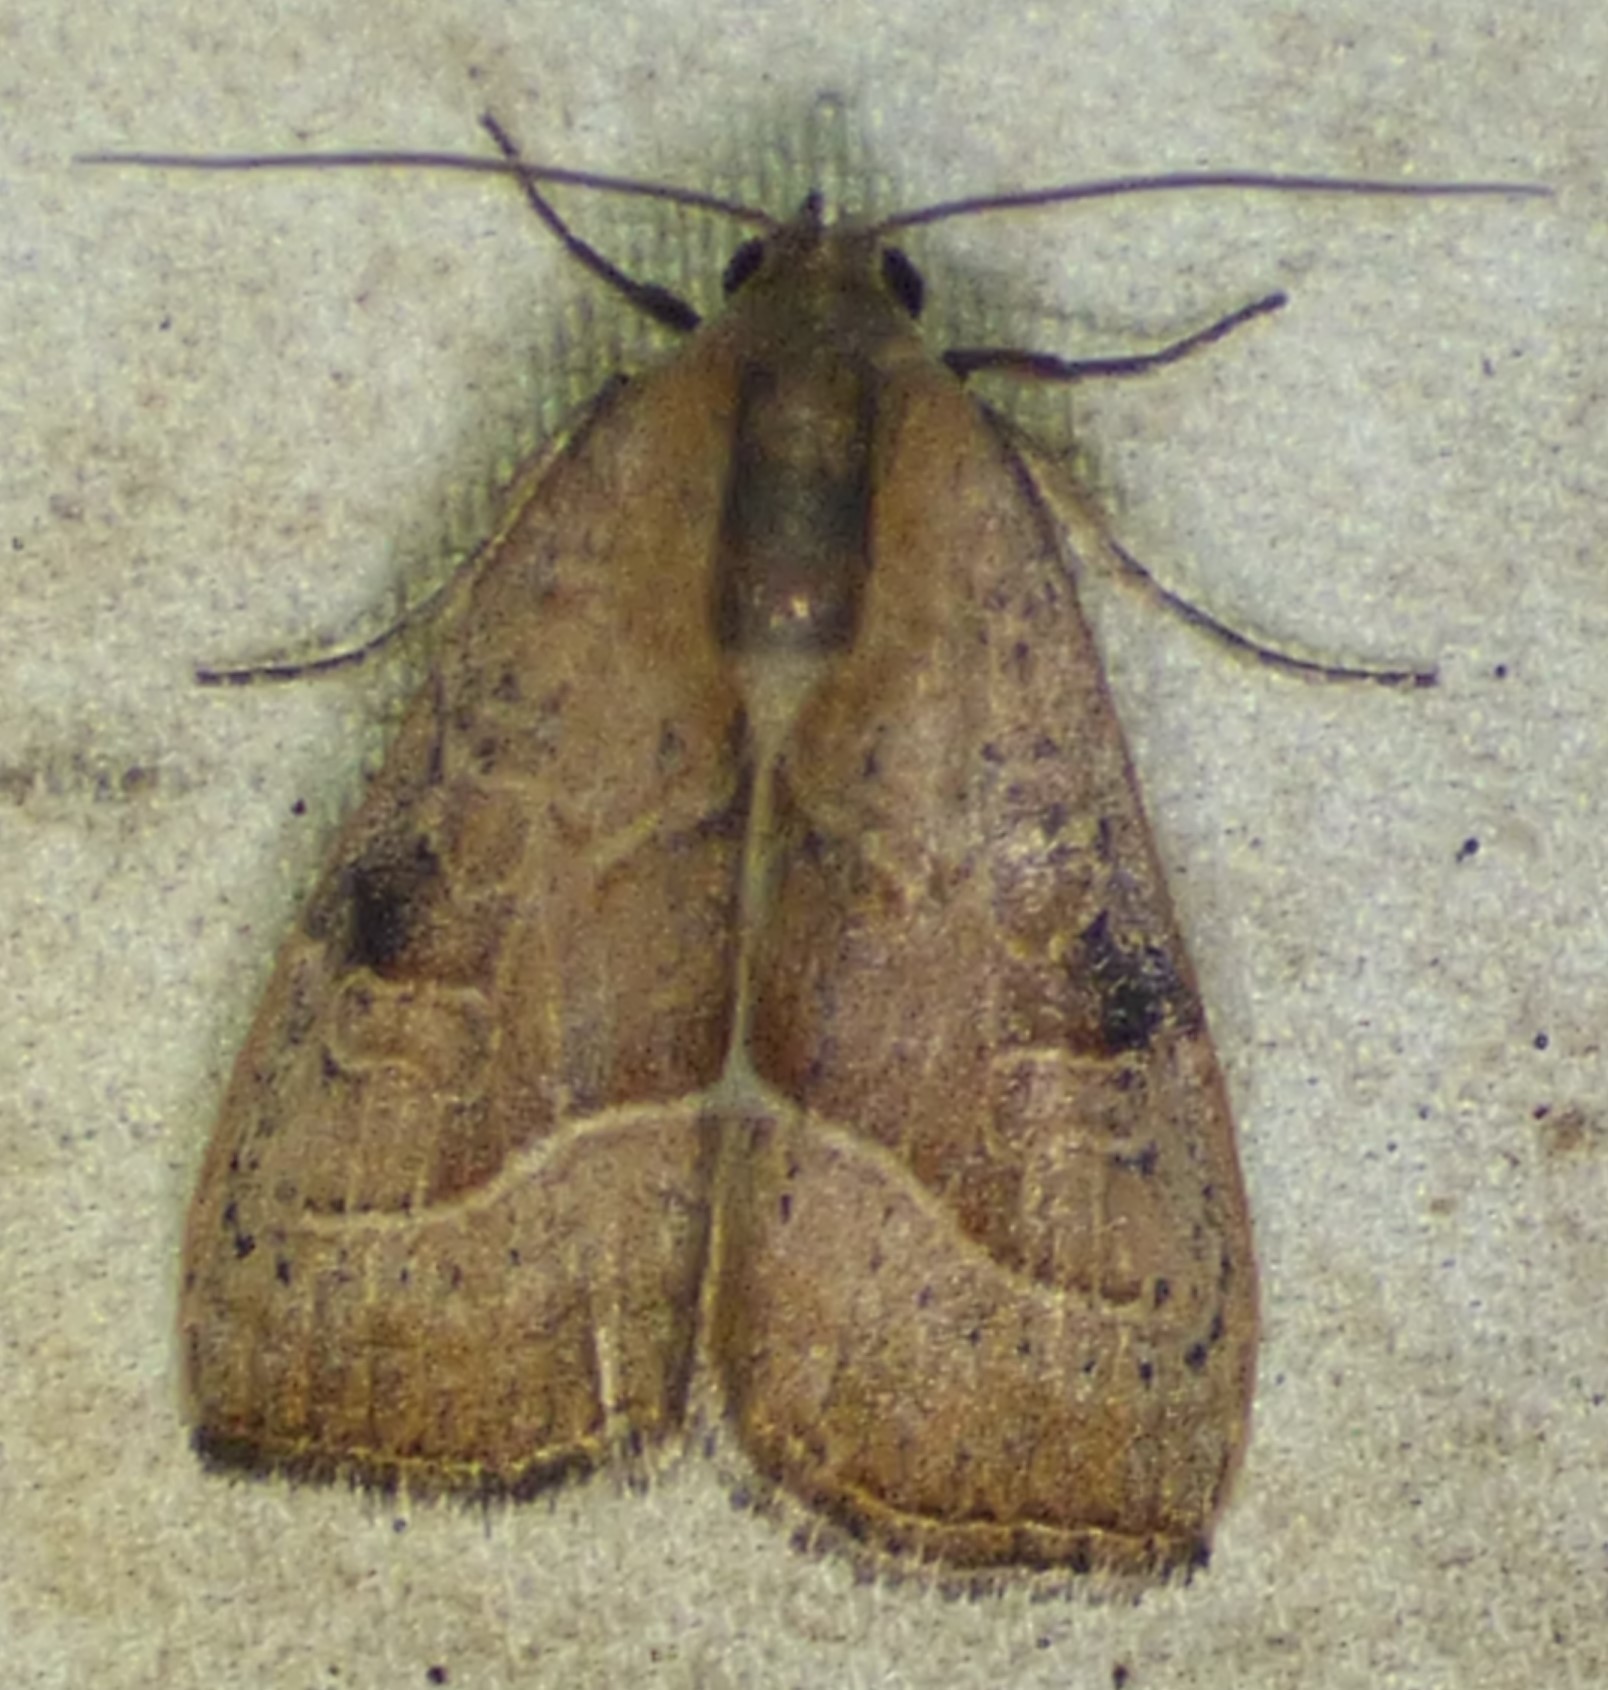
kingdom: Animalia
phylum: Arthropoda
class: Insecta
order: Lepidoptera
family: Noctuidae
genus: Galgula
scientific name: Galgula partita
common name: Wedgeling
